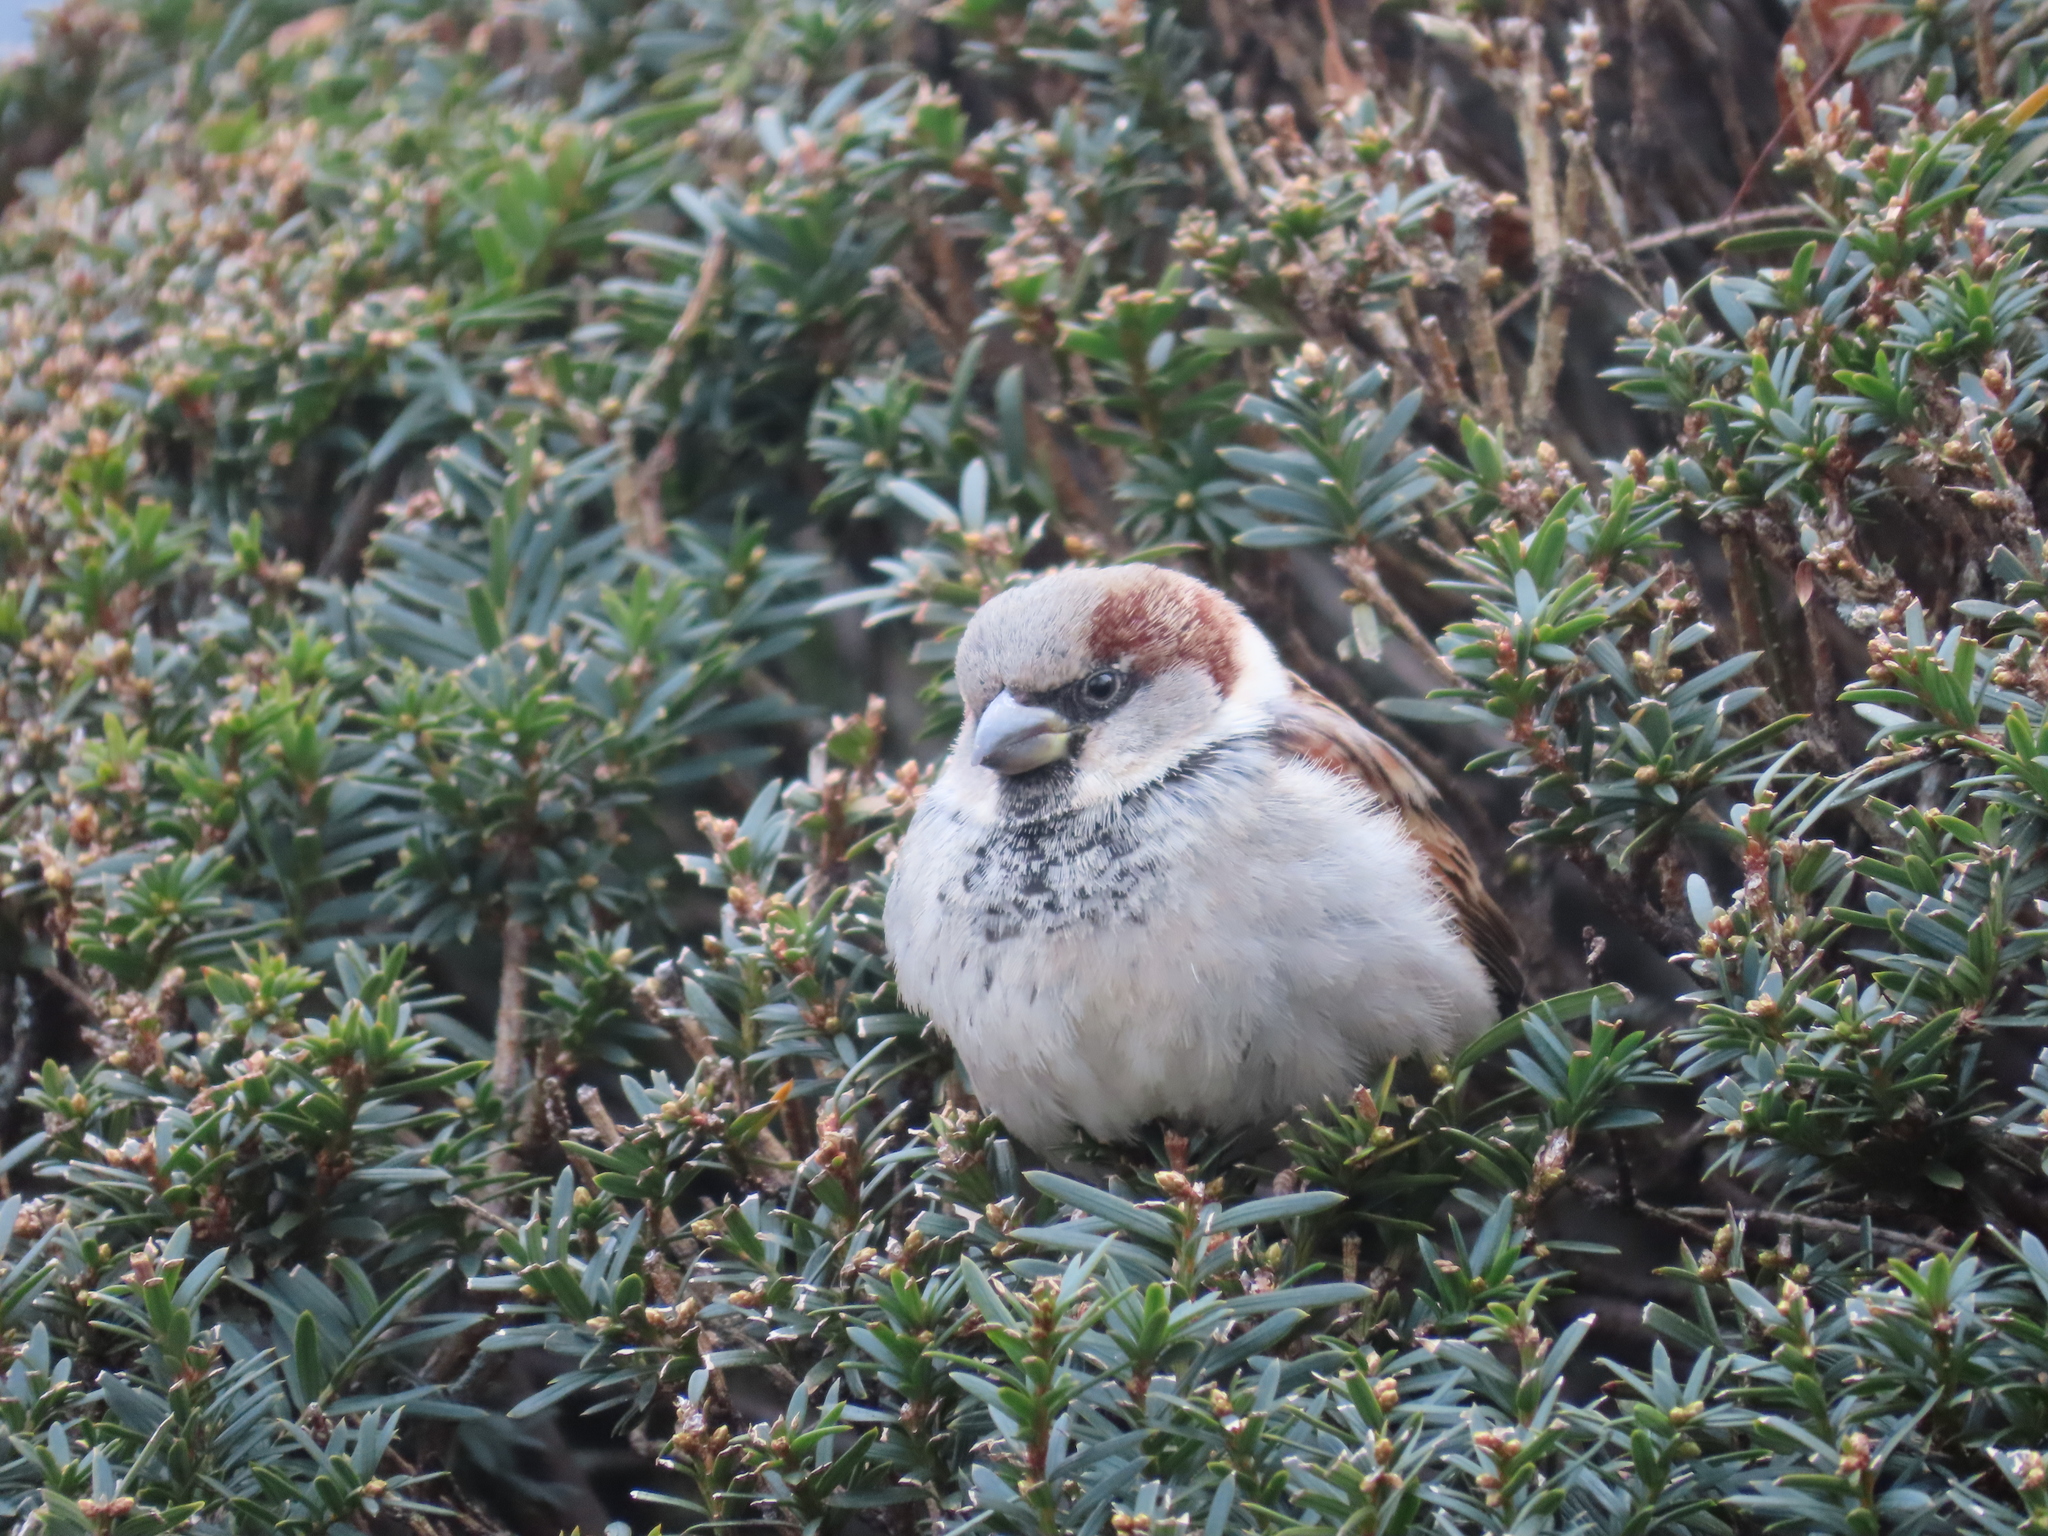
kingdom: Animalia
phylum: Chordata
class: Aves
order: Passeriformes
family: Passeridae
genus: Passer
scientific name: Passer domesticus
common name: House sparrow
